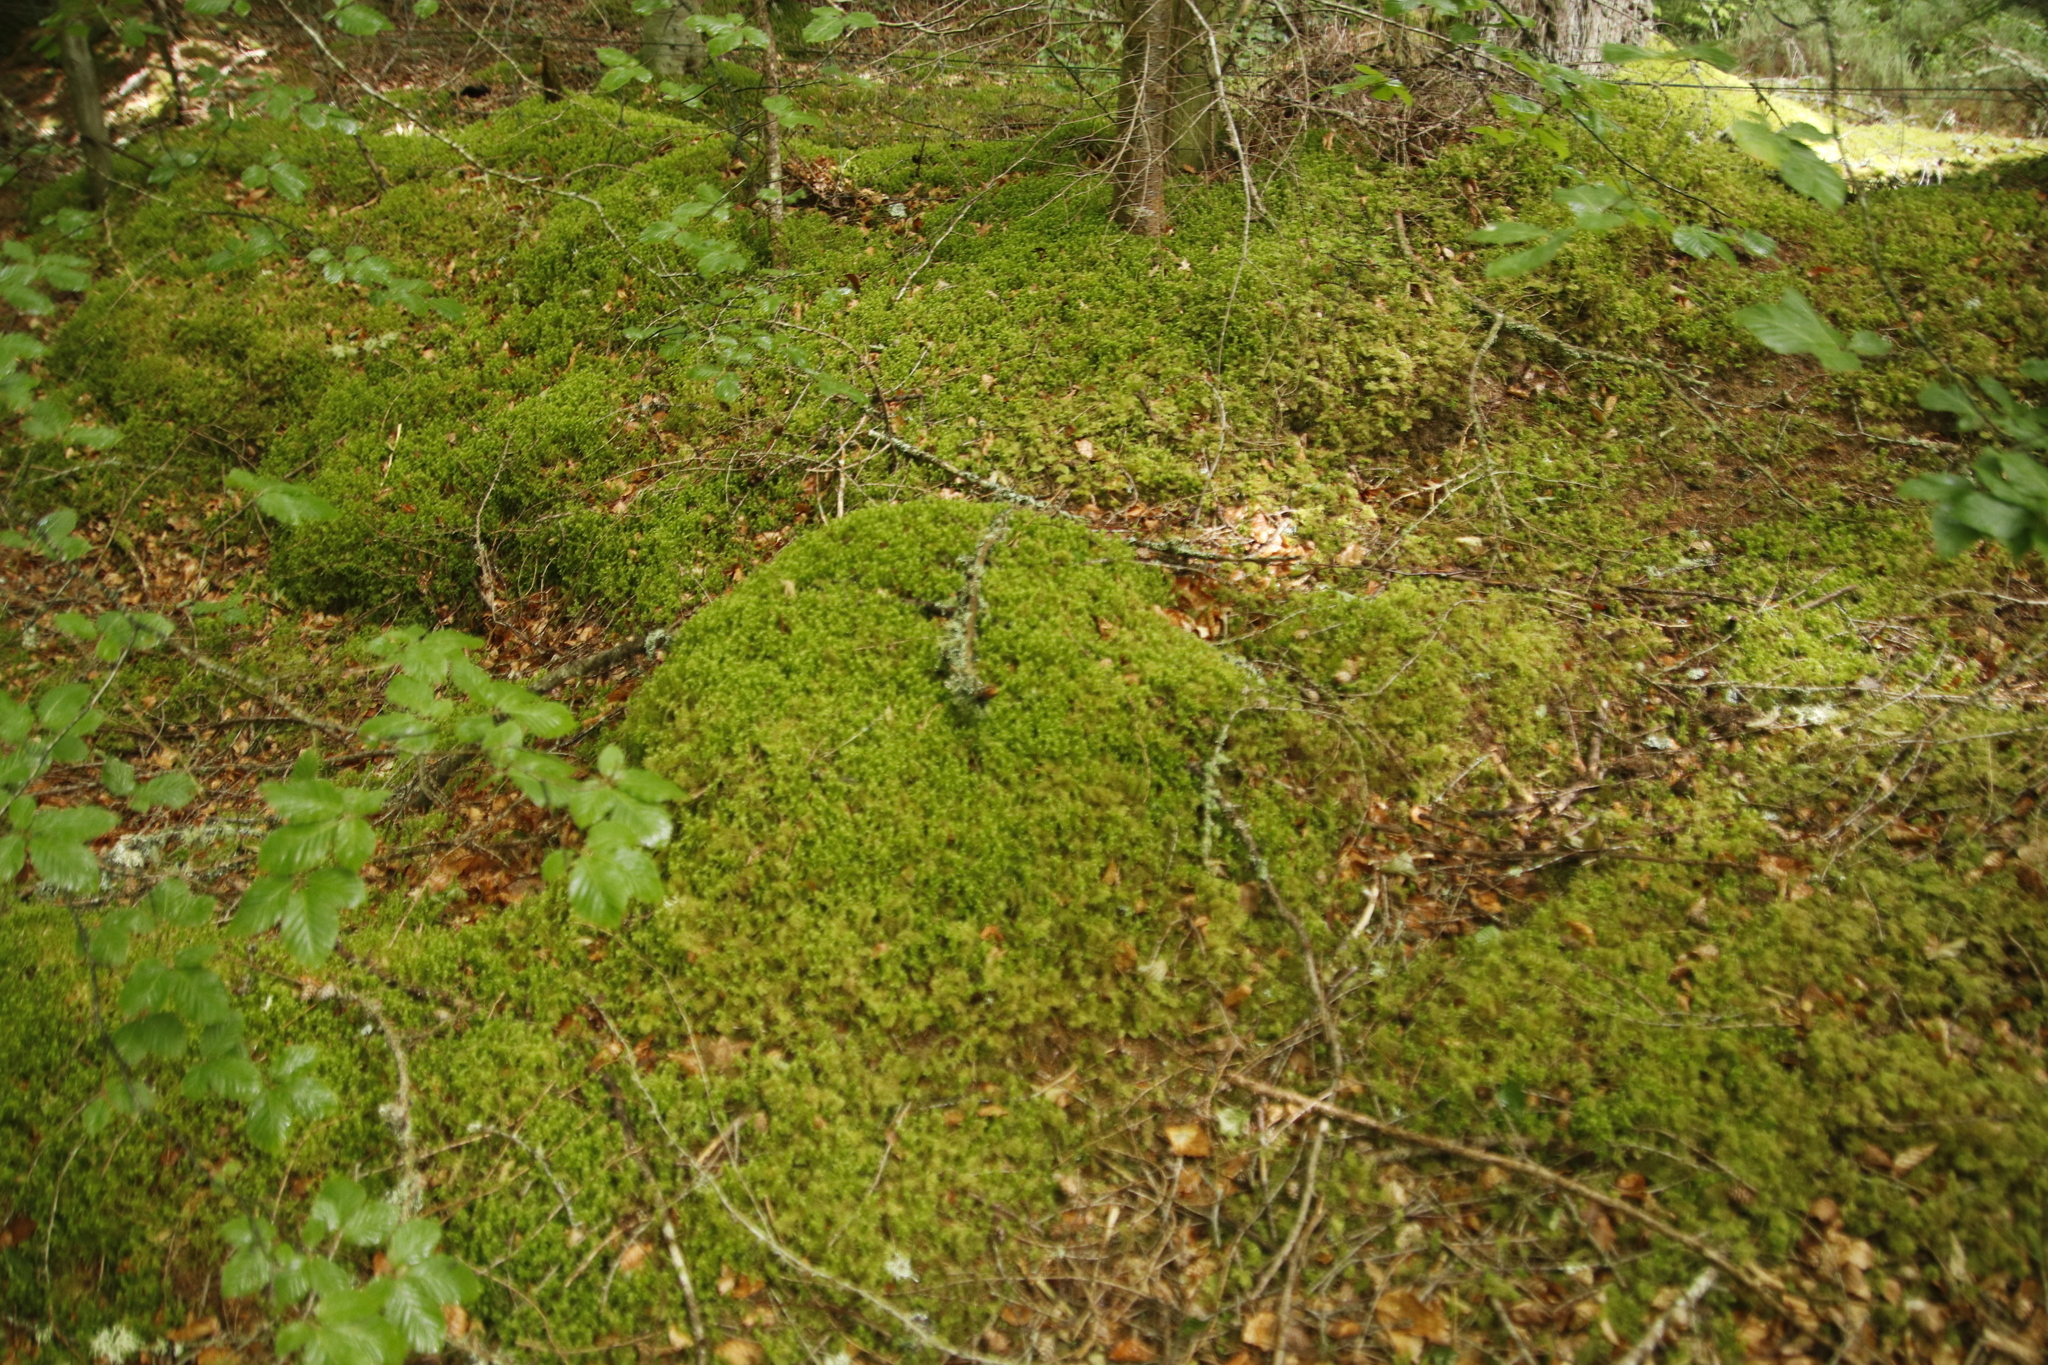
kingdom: Plantae
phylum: Bryophyta
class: Bryopsida
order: Hypnales
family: Hylocomiaceae
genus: Hylocomiadelphus
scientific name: Hylocomiadelphus triquetrus
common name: Rough goose neck moss
